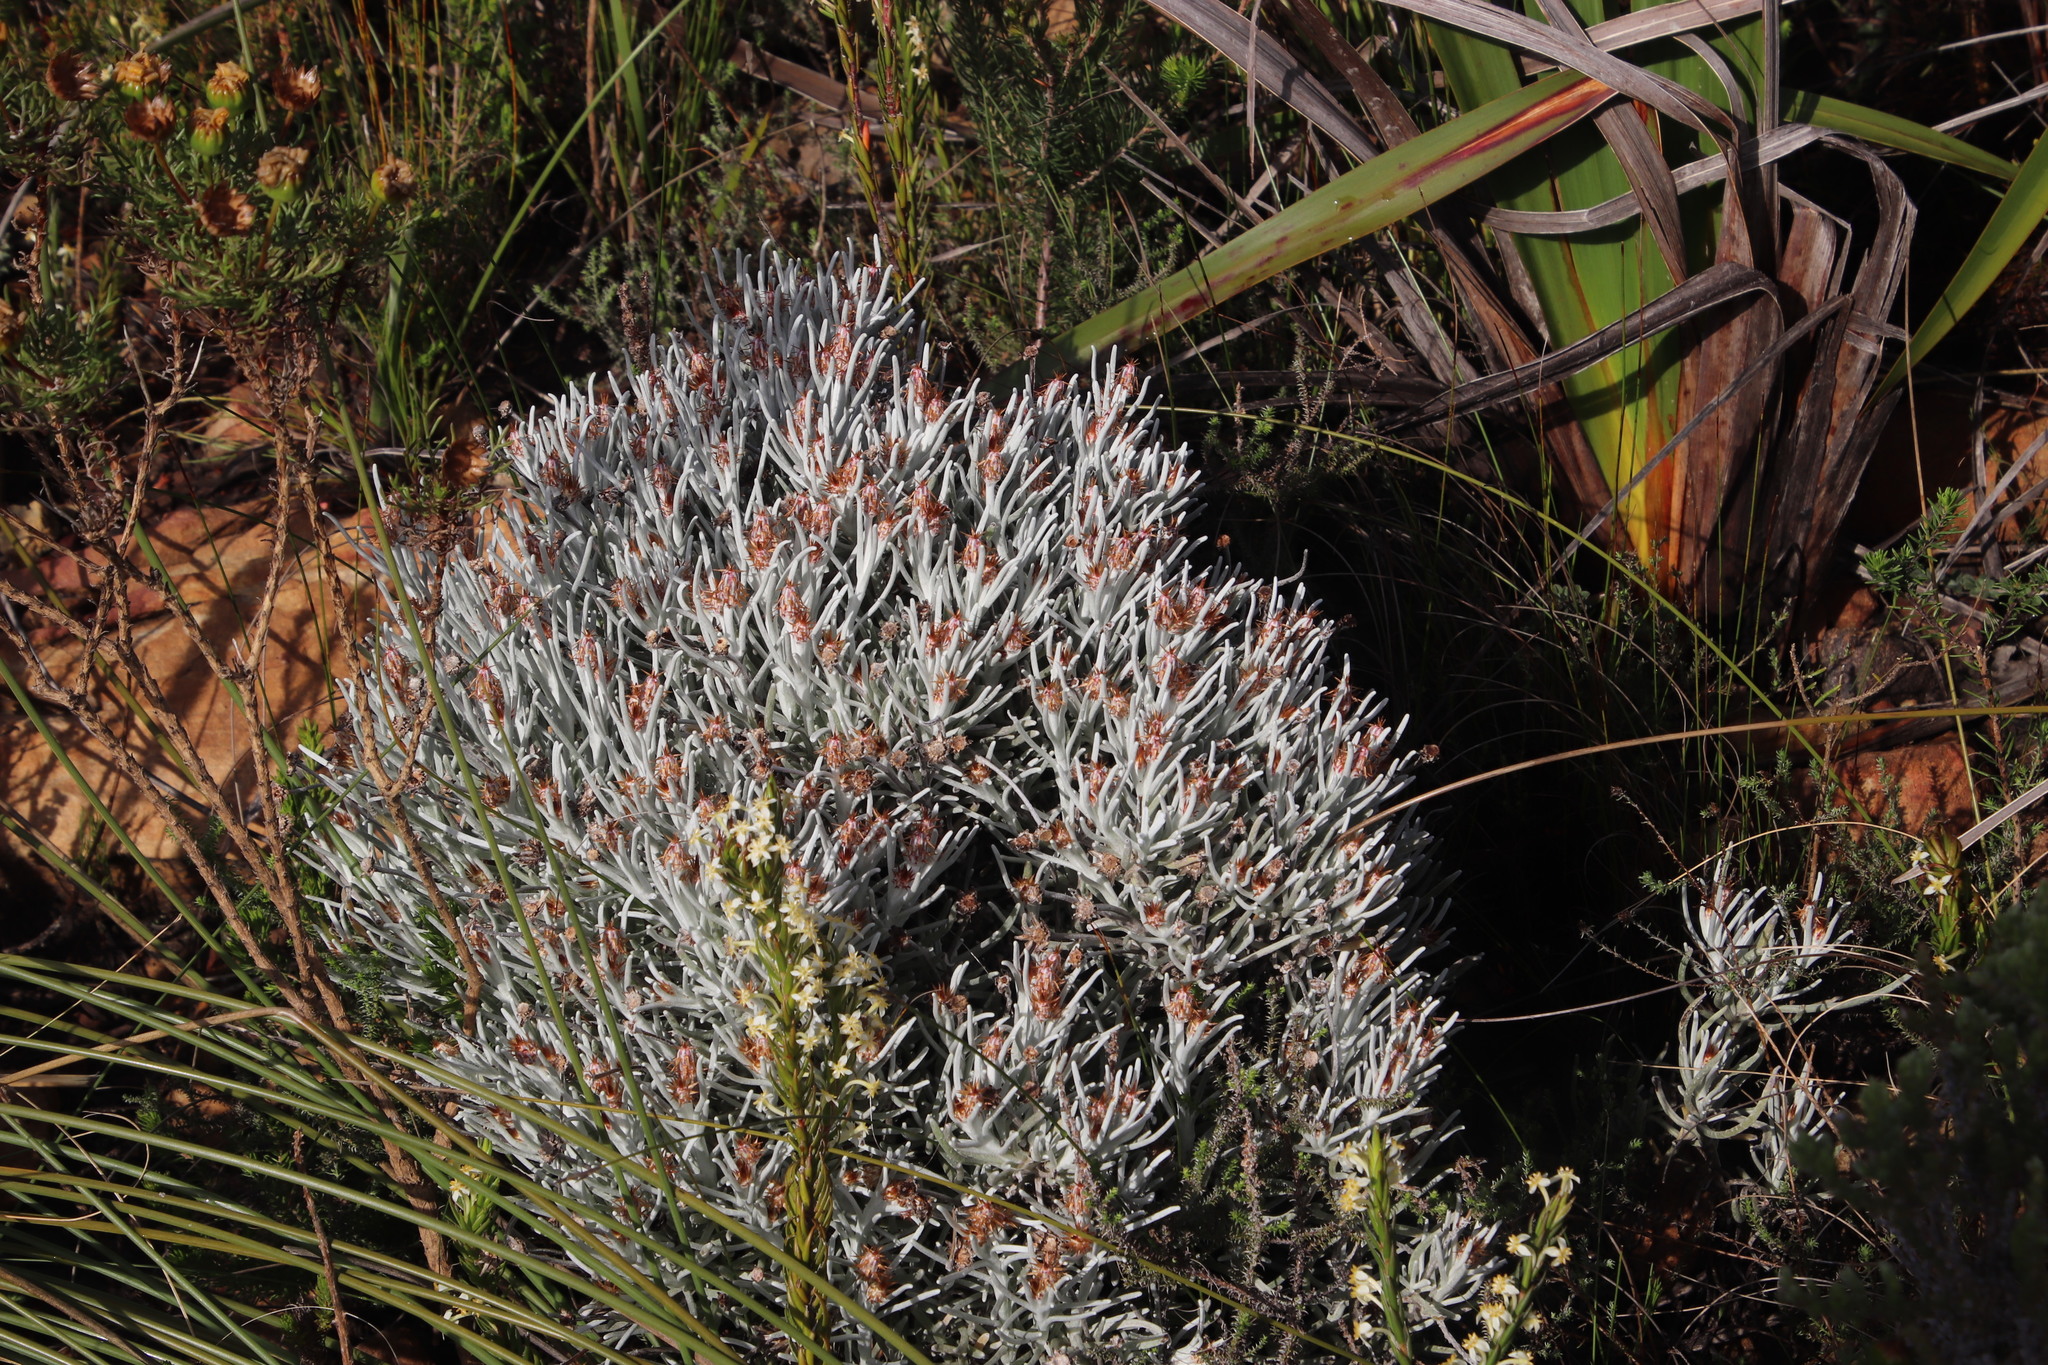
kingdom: Plantae
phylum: Tracheophyta
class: Magnoliopsida
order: Asterales
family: Asteraceae
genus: Syncarpha
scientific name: Syncarpha gnaphaloides
